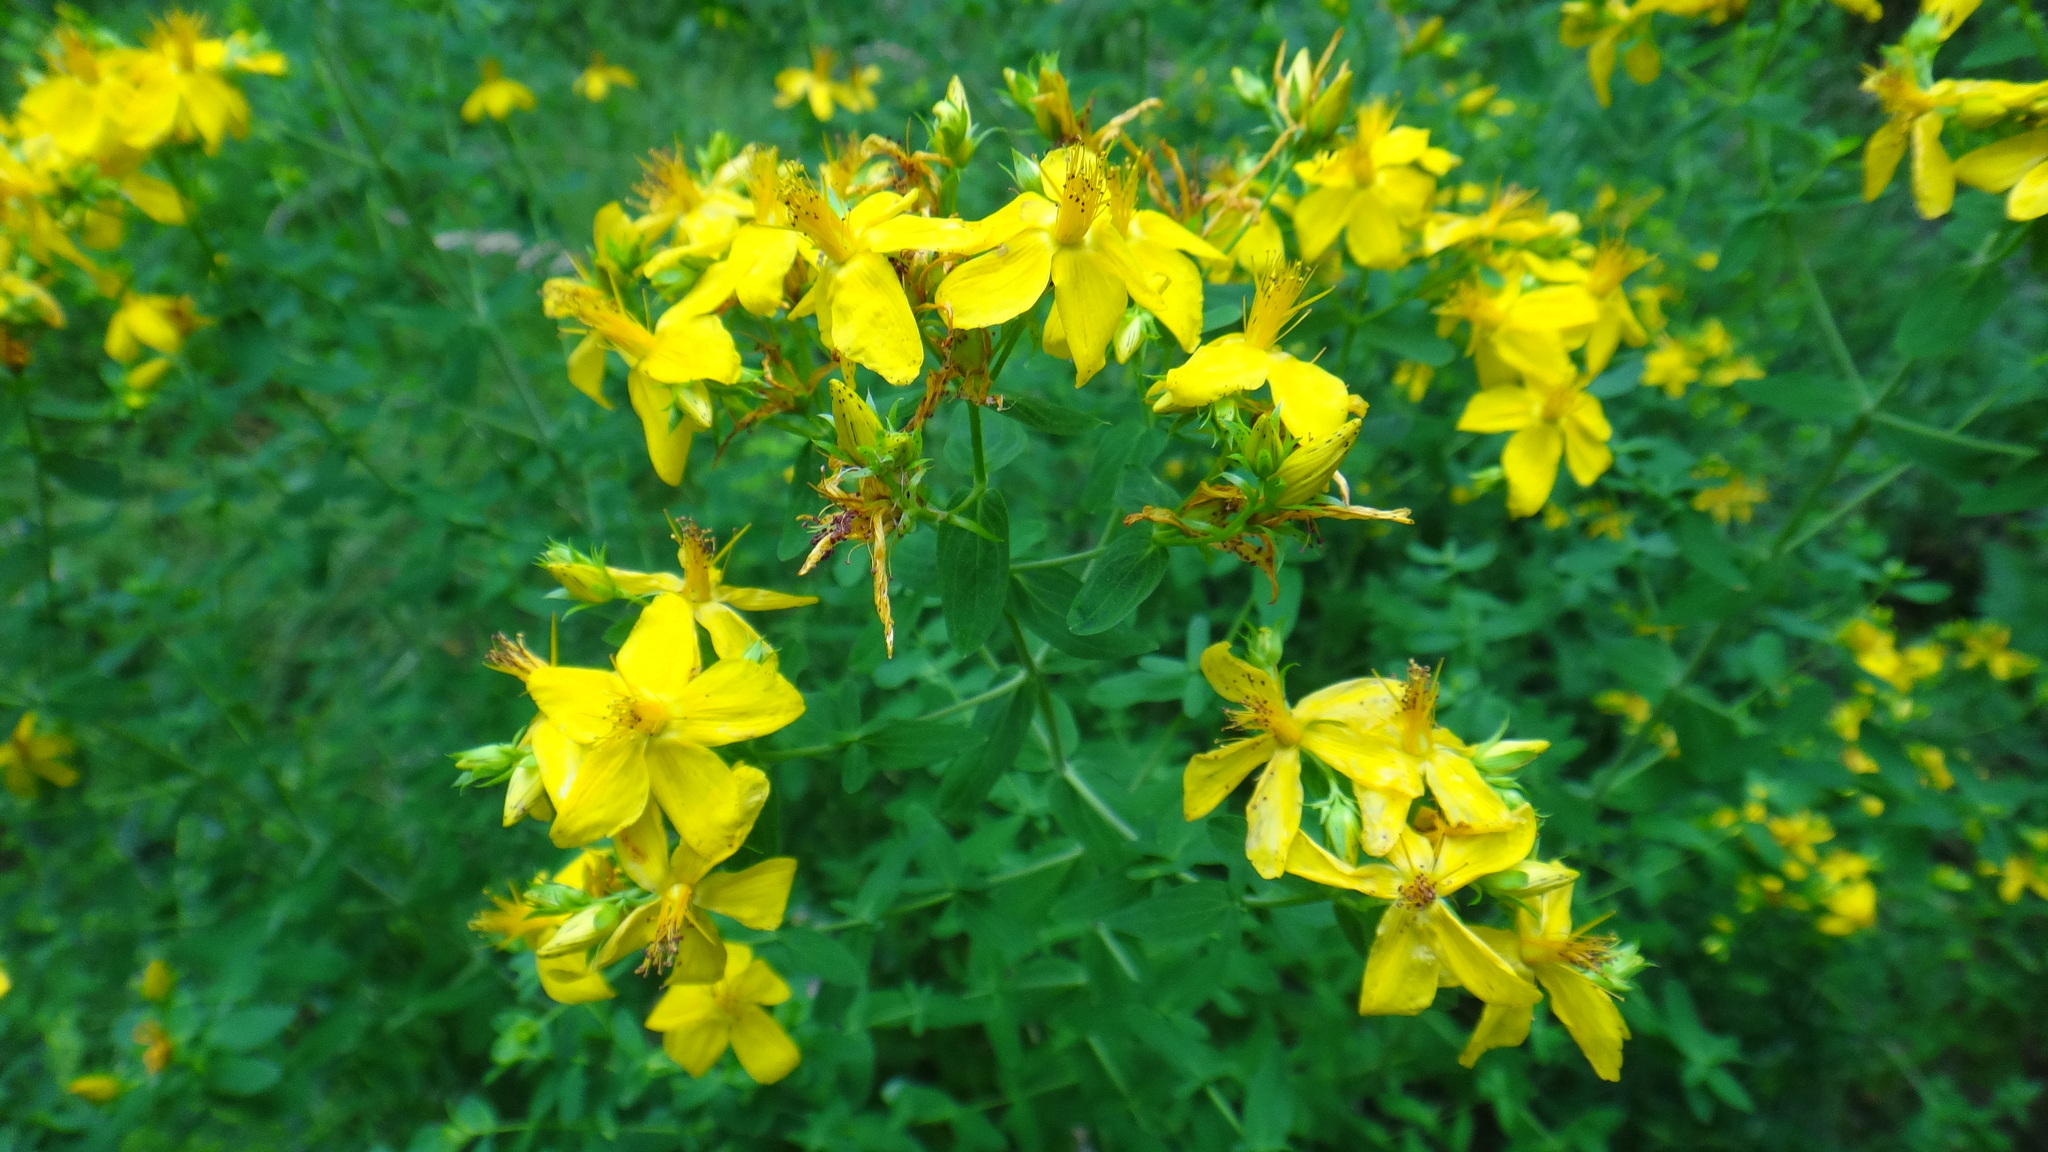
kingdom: Plantae
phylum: Tracheophyta
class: Magnoliopsida
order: Malpighiales
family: Hypericaceae
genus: Hypericum
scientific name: Hypericum perforatum
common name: Common st. johnswort
